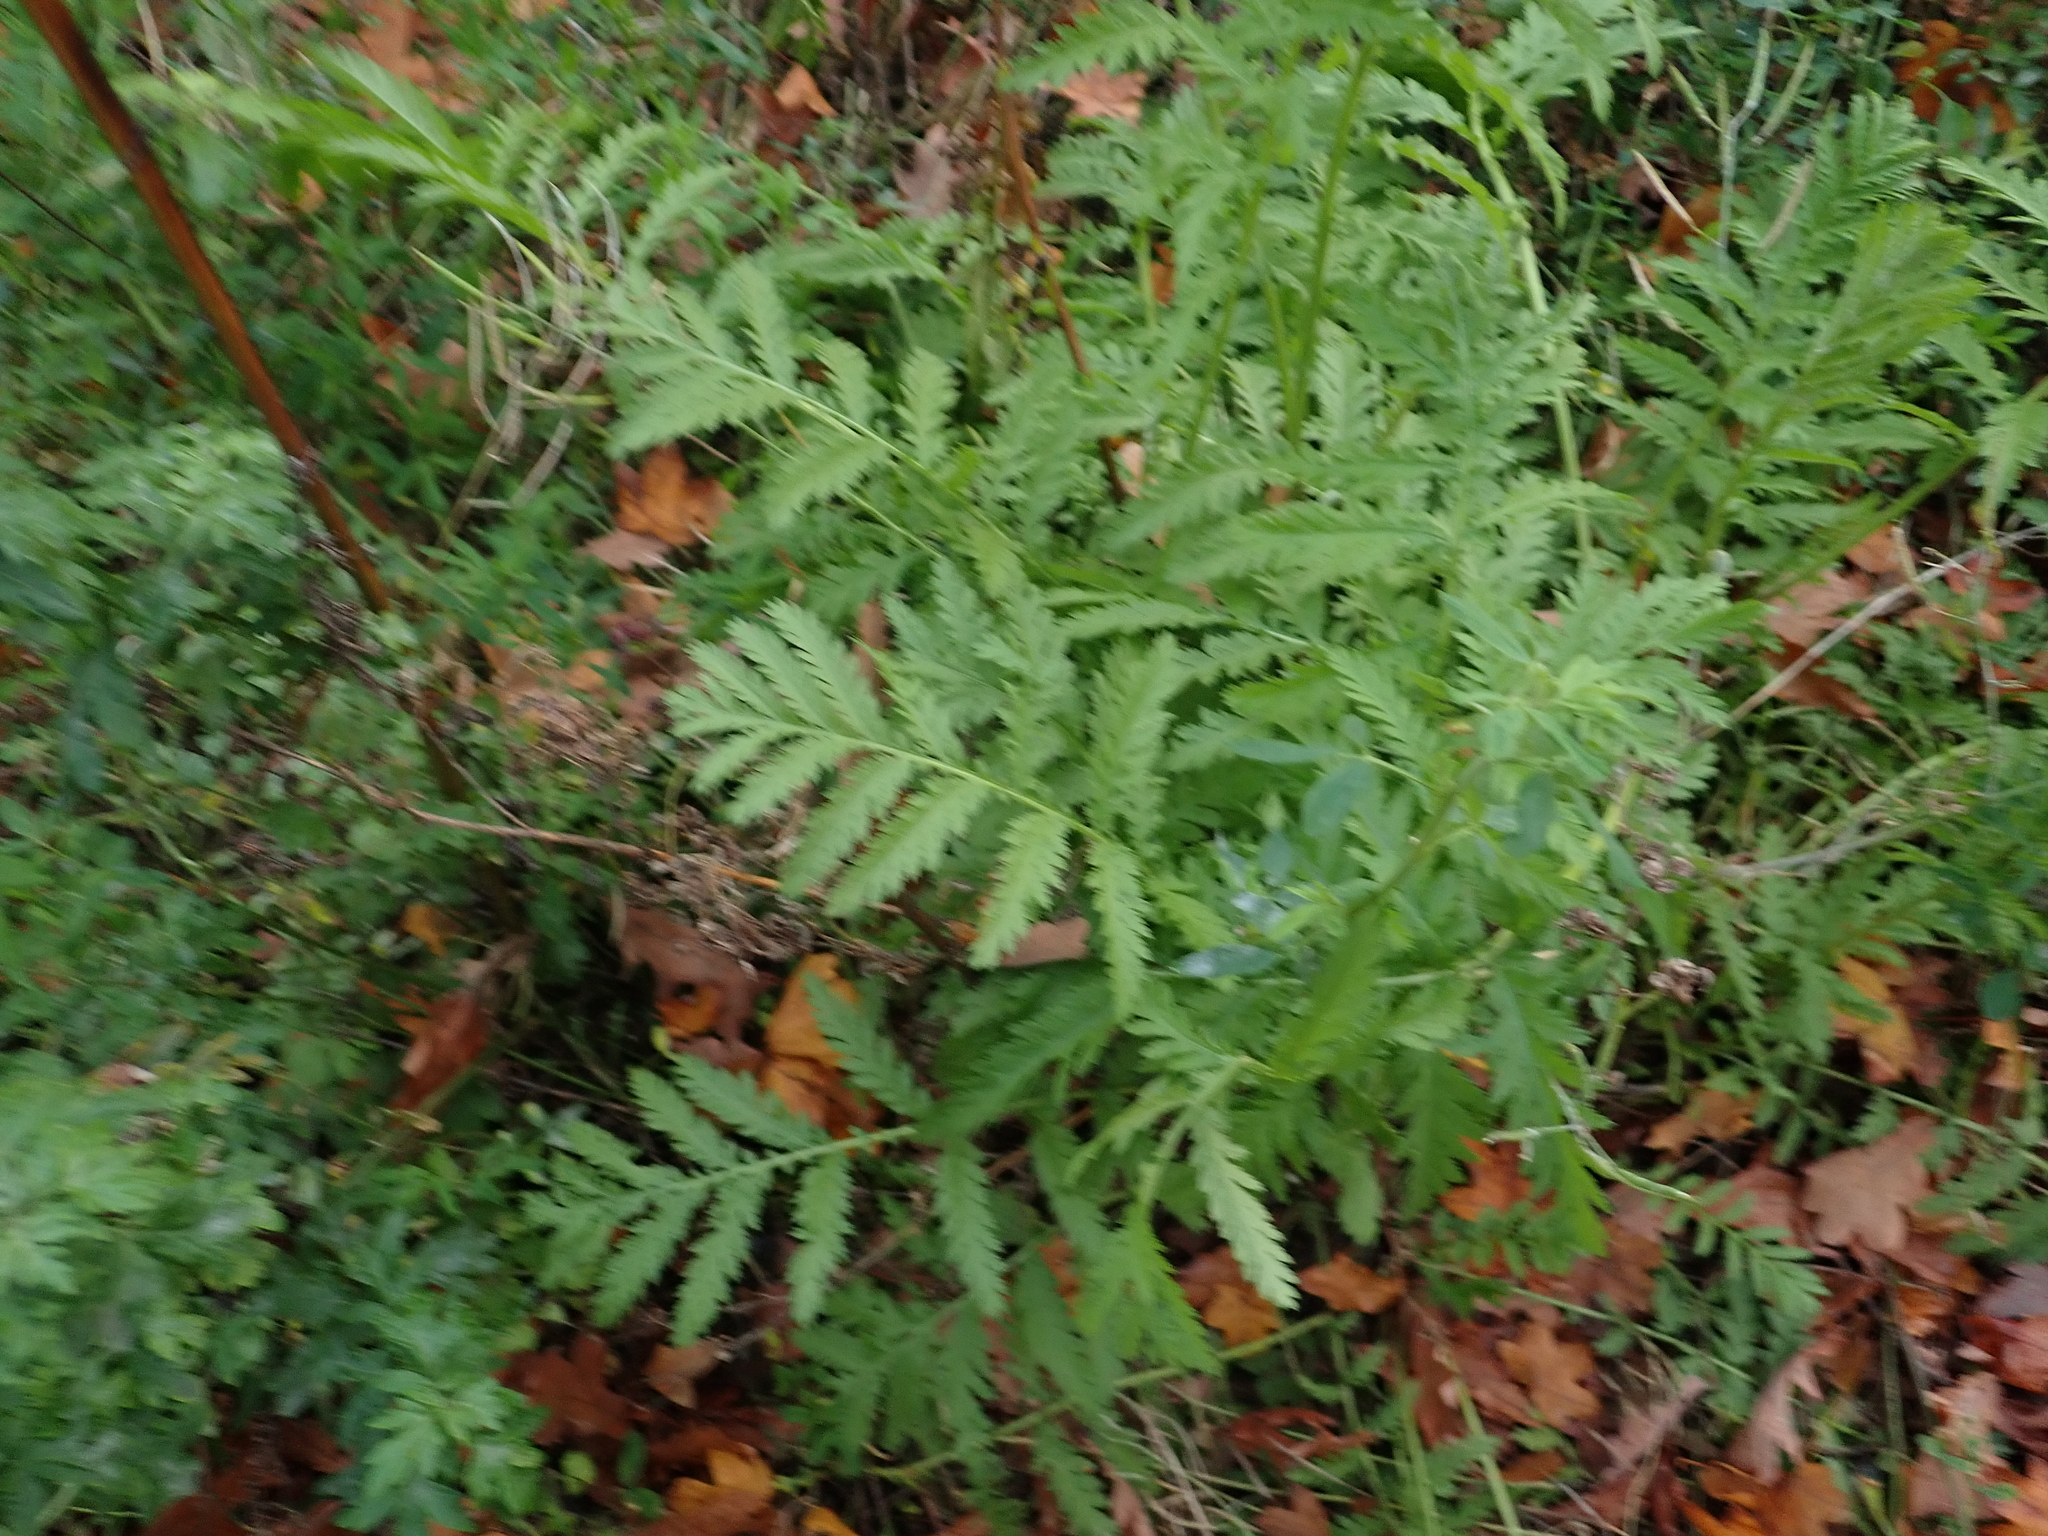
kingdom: Plantae
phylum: Tracheophyta
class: Magnoliopsida
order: Asterales
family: Asteraceae
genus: Tanacetum
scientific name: Tanacetum vulgare
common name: Common tansy
